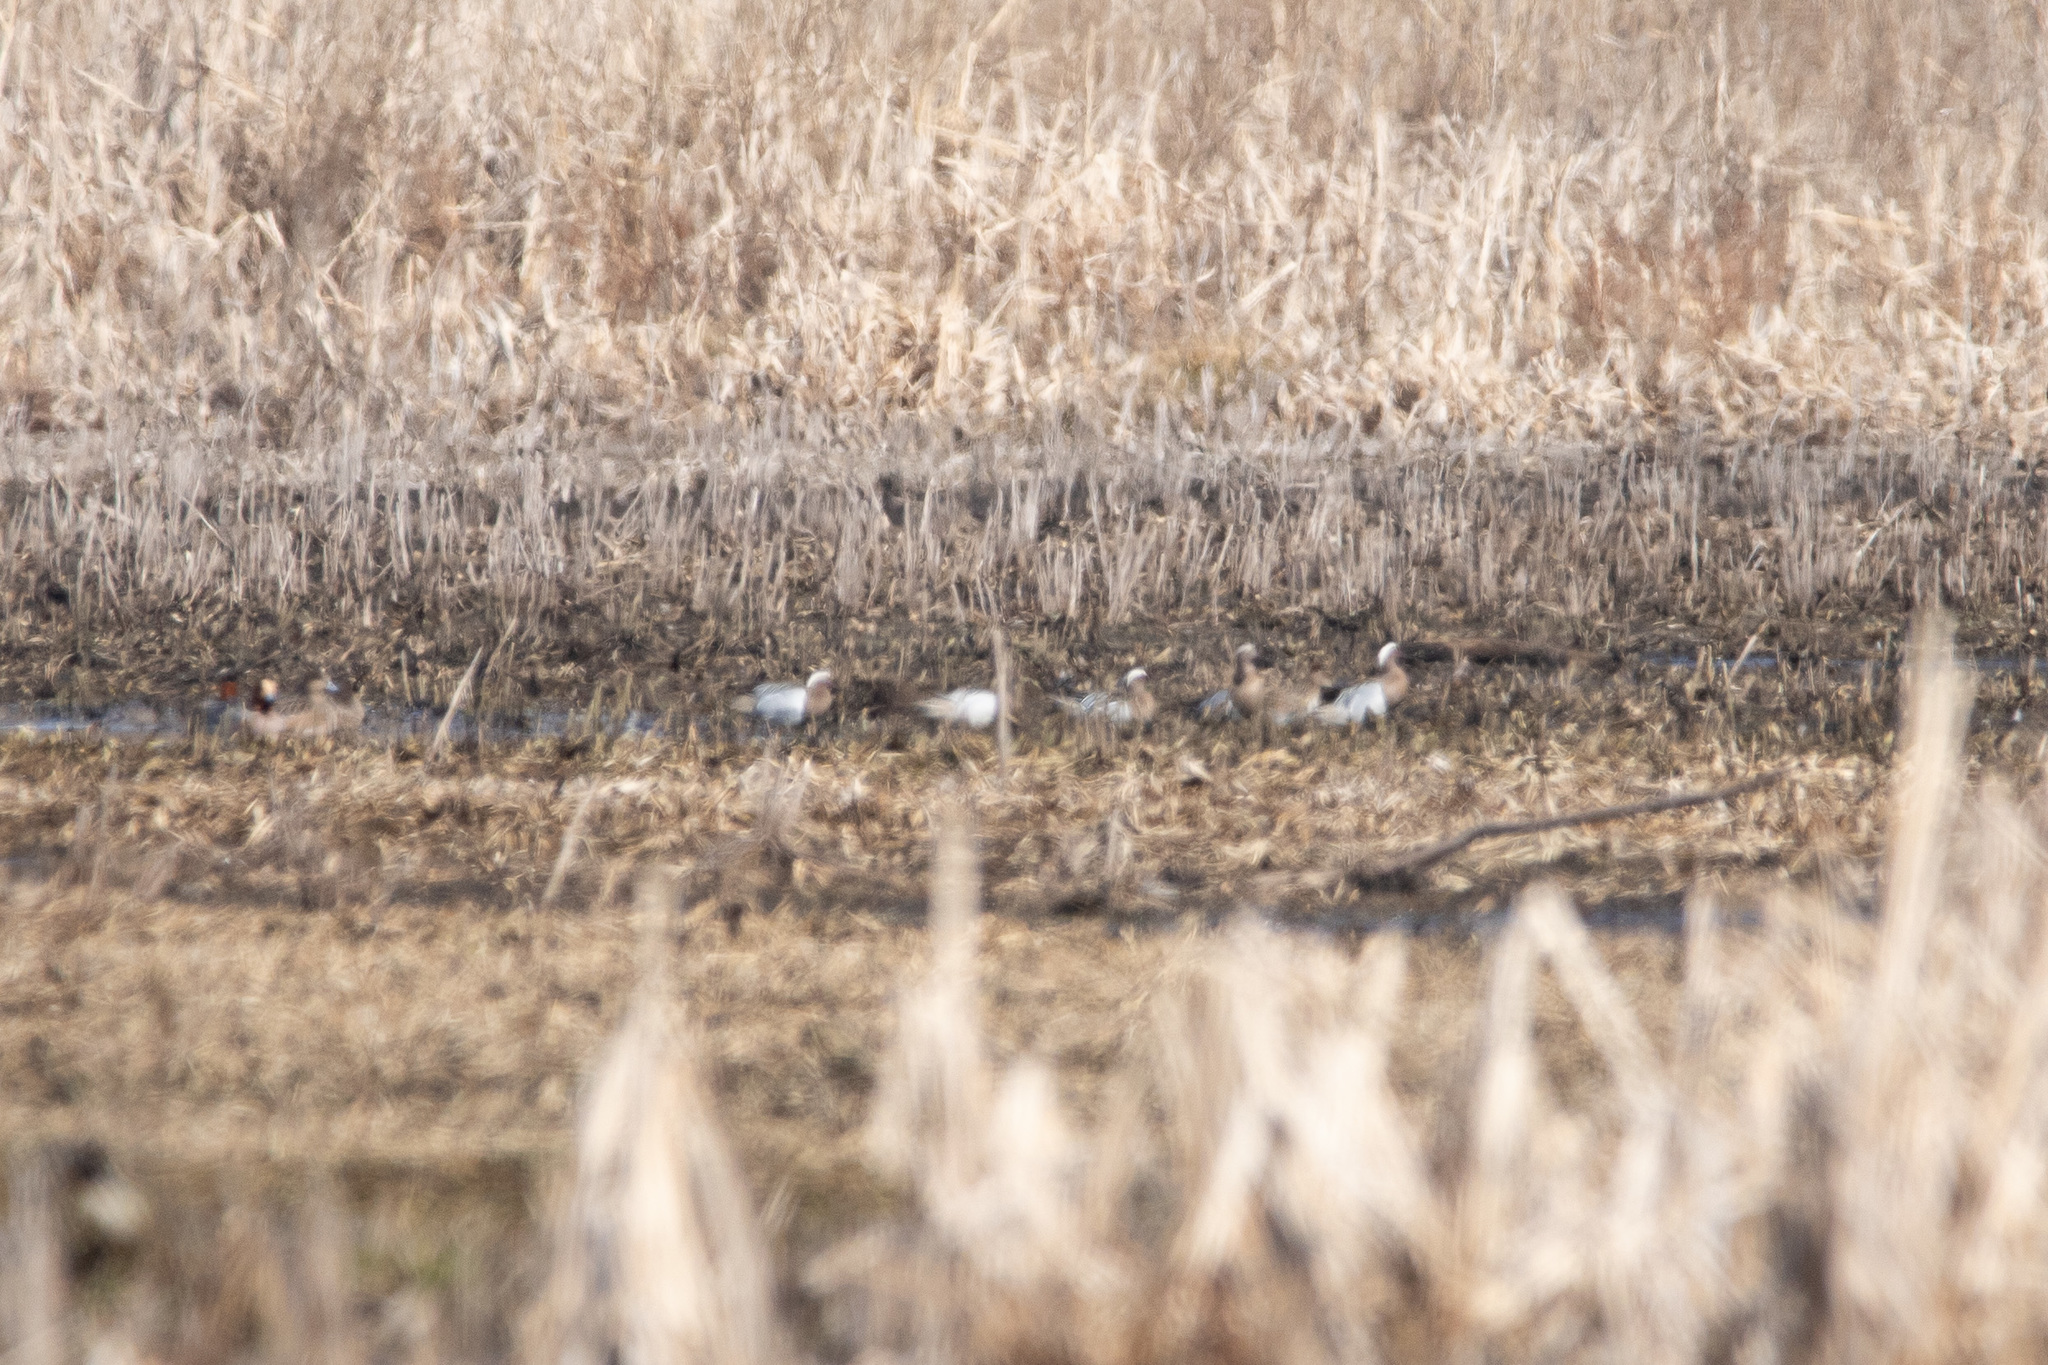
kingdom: Animalia
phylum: Chordata
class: Aves
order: Anseriformes
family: Anatidae
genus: Spatula
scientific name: Spatula querquedula
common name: Garganey
